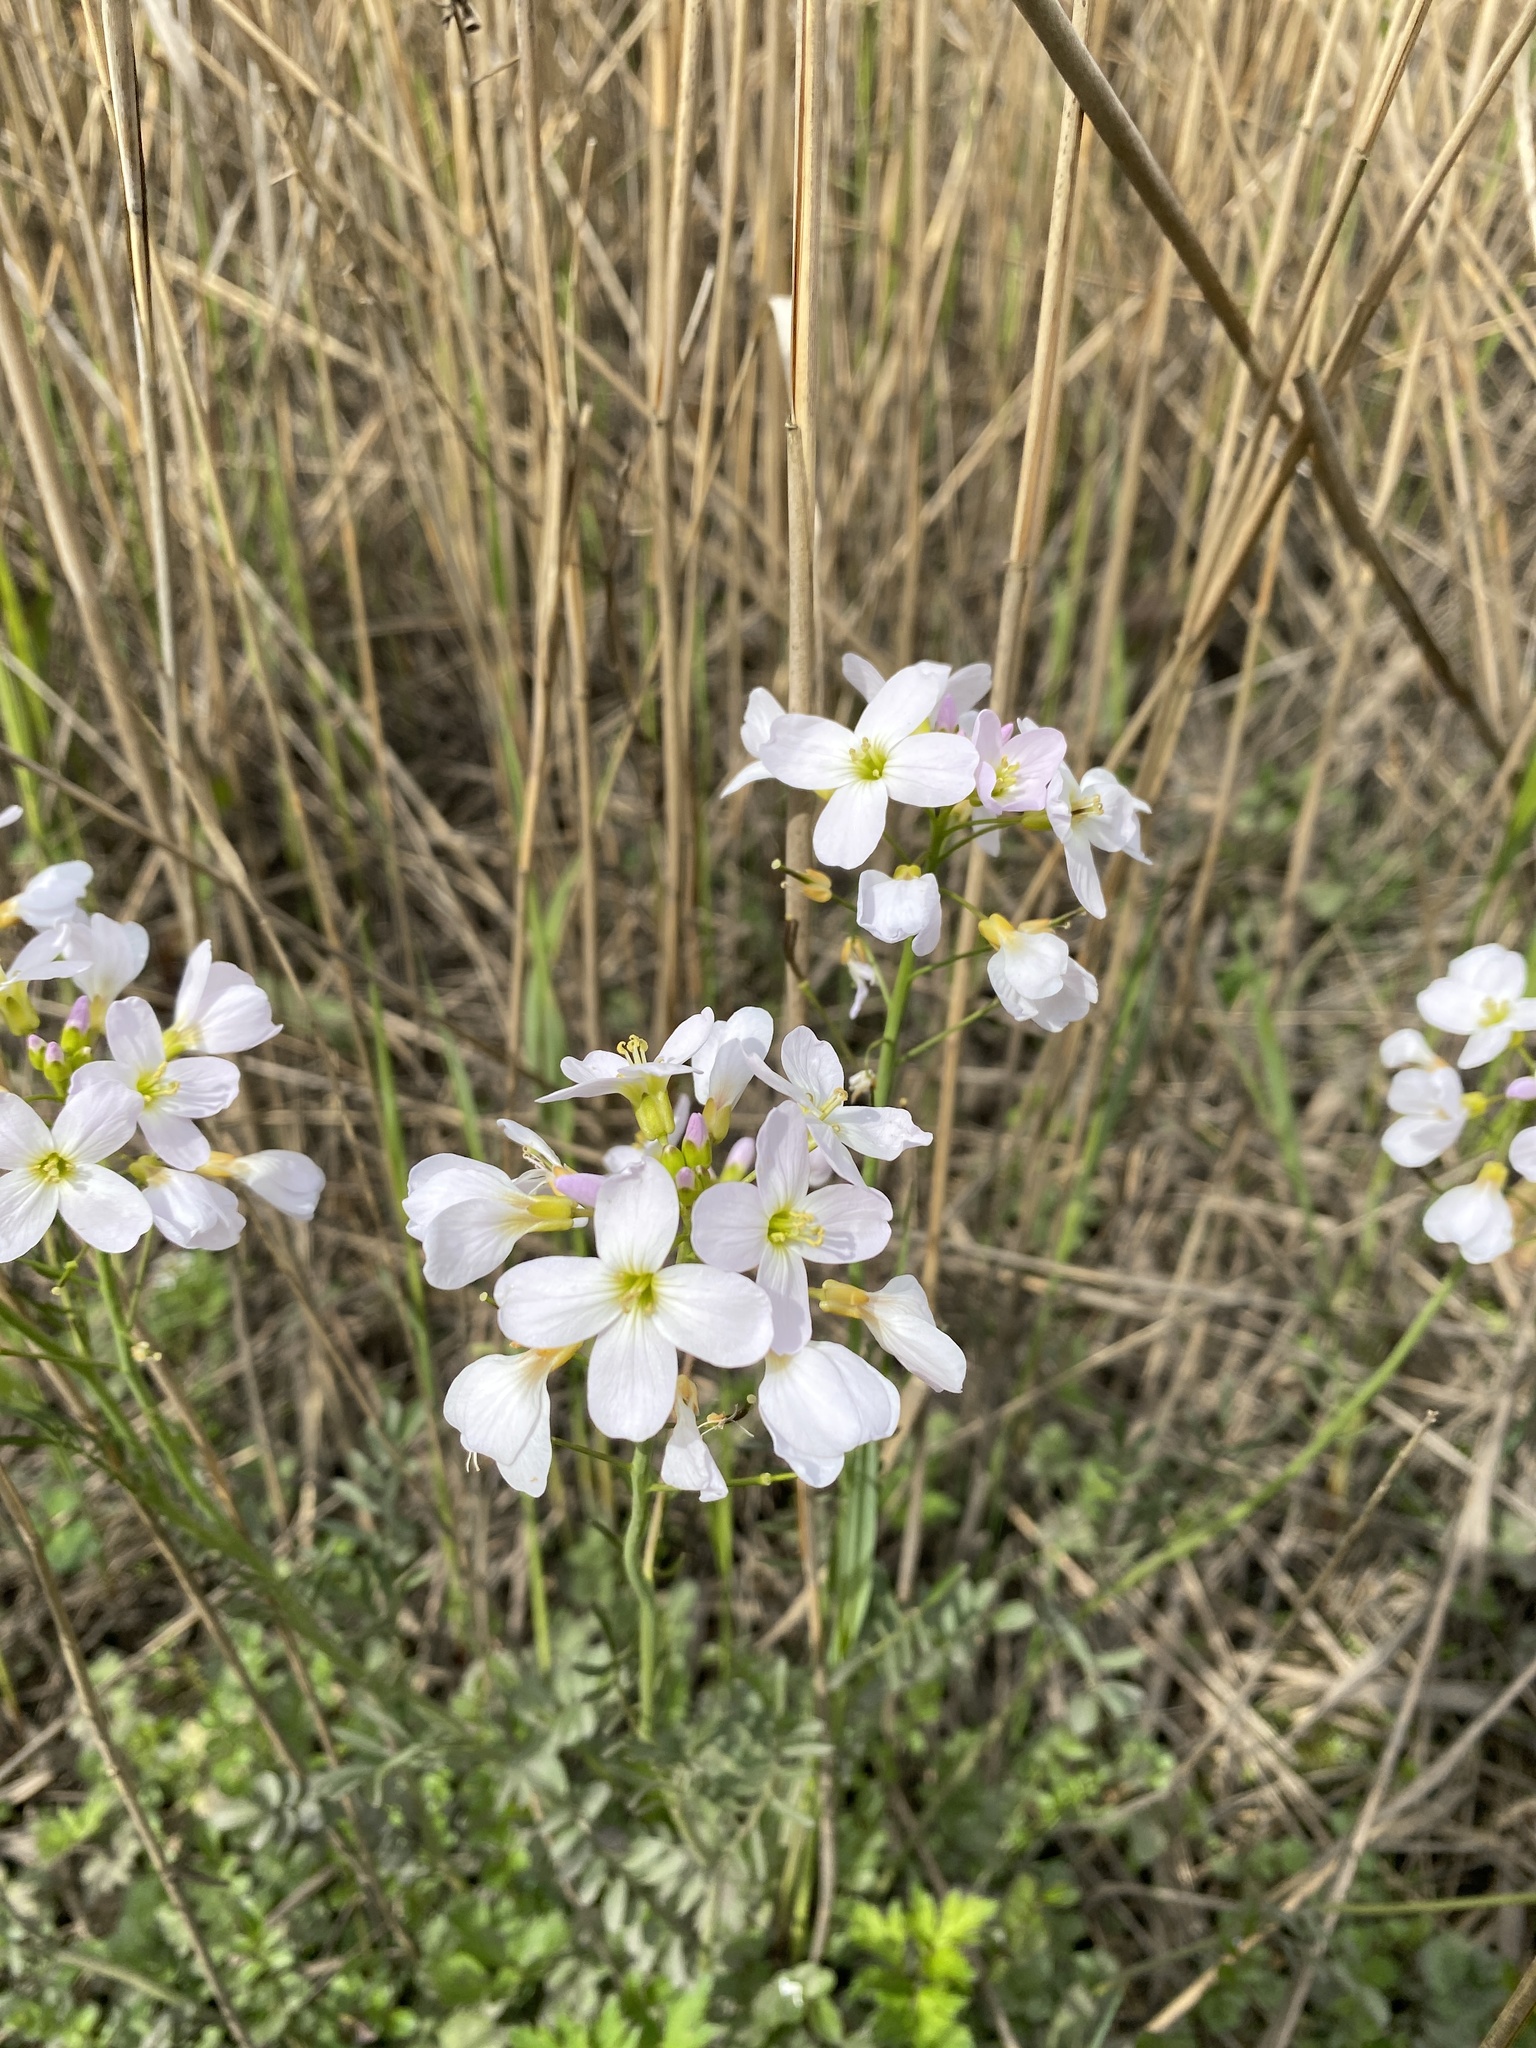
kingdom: Plantae
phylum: Tracheophyta
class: Magnoliopsida
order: Brassicales
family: Brassicaceae
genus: Cardamine
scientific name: Cardamine pratensis
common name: Cuckoo flower
